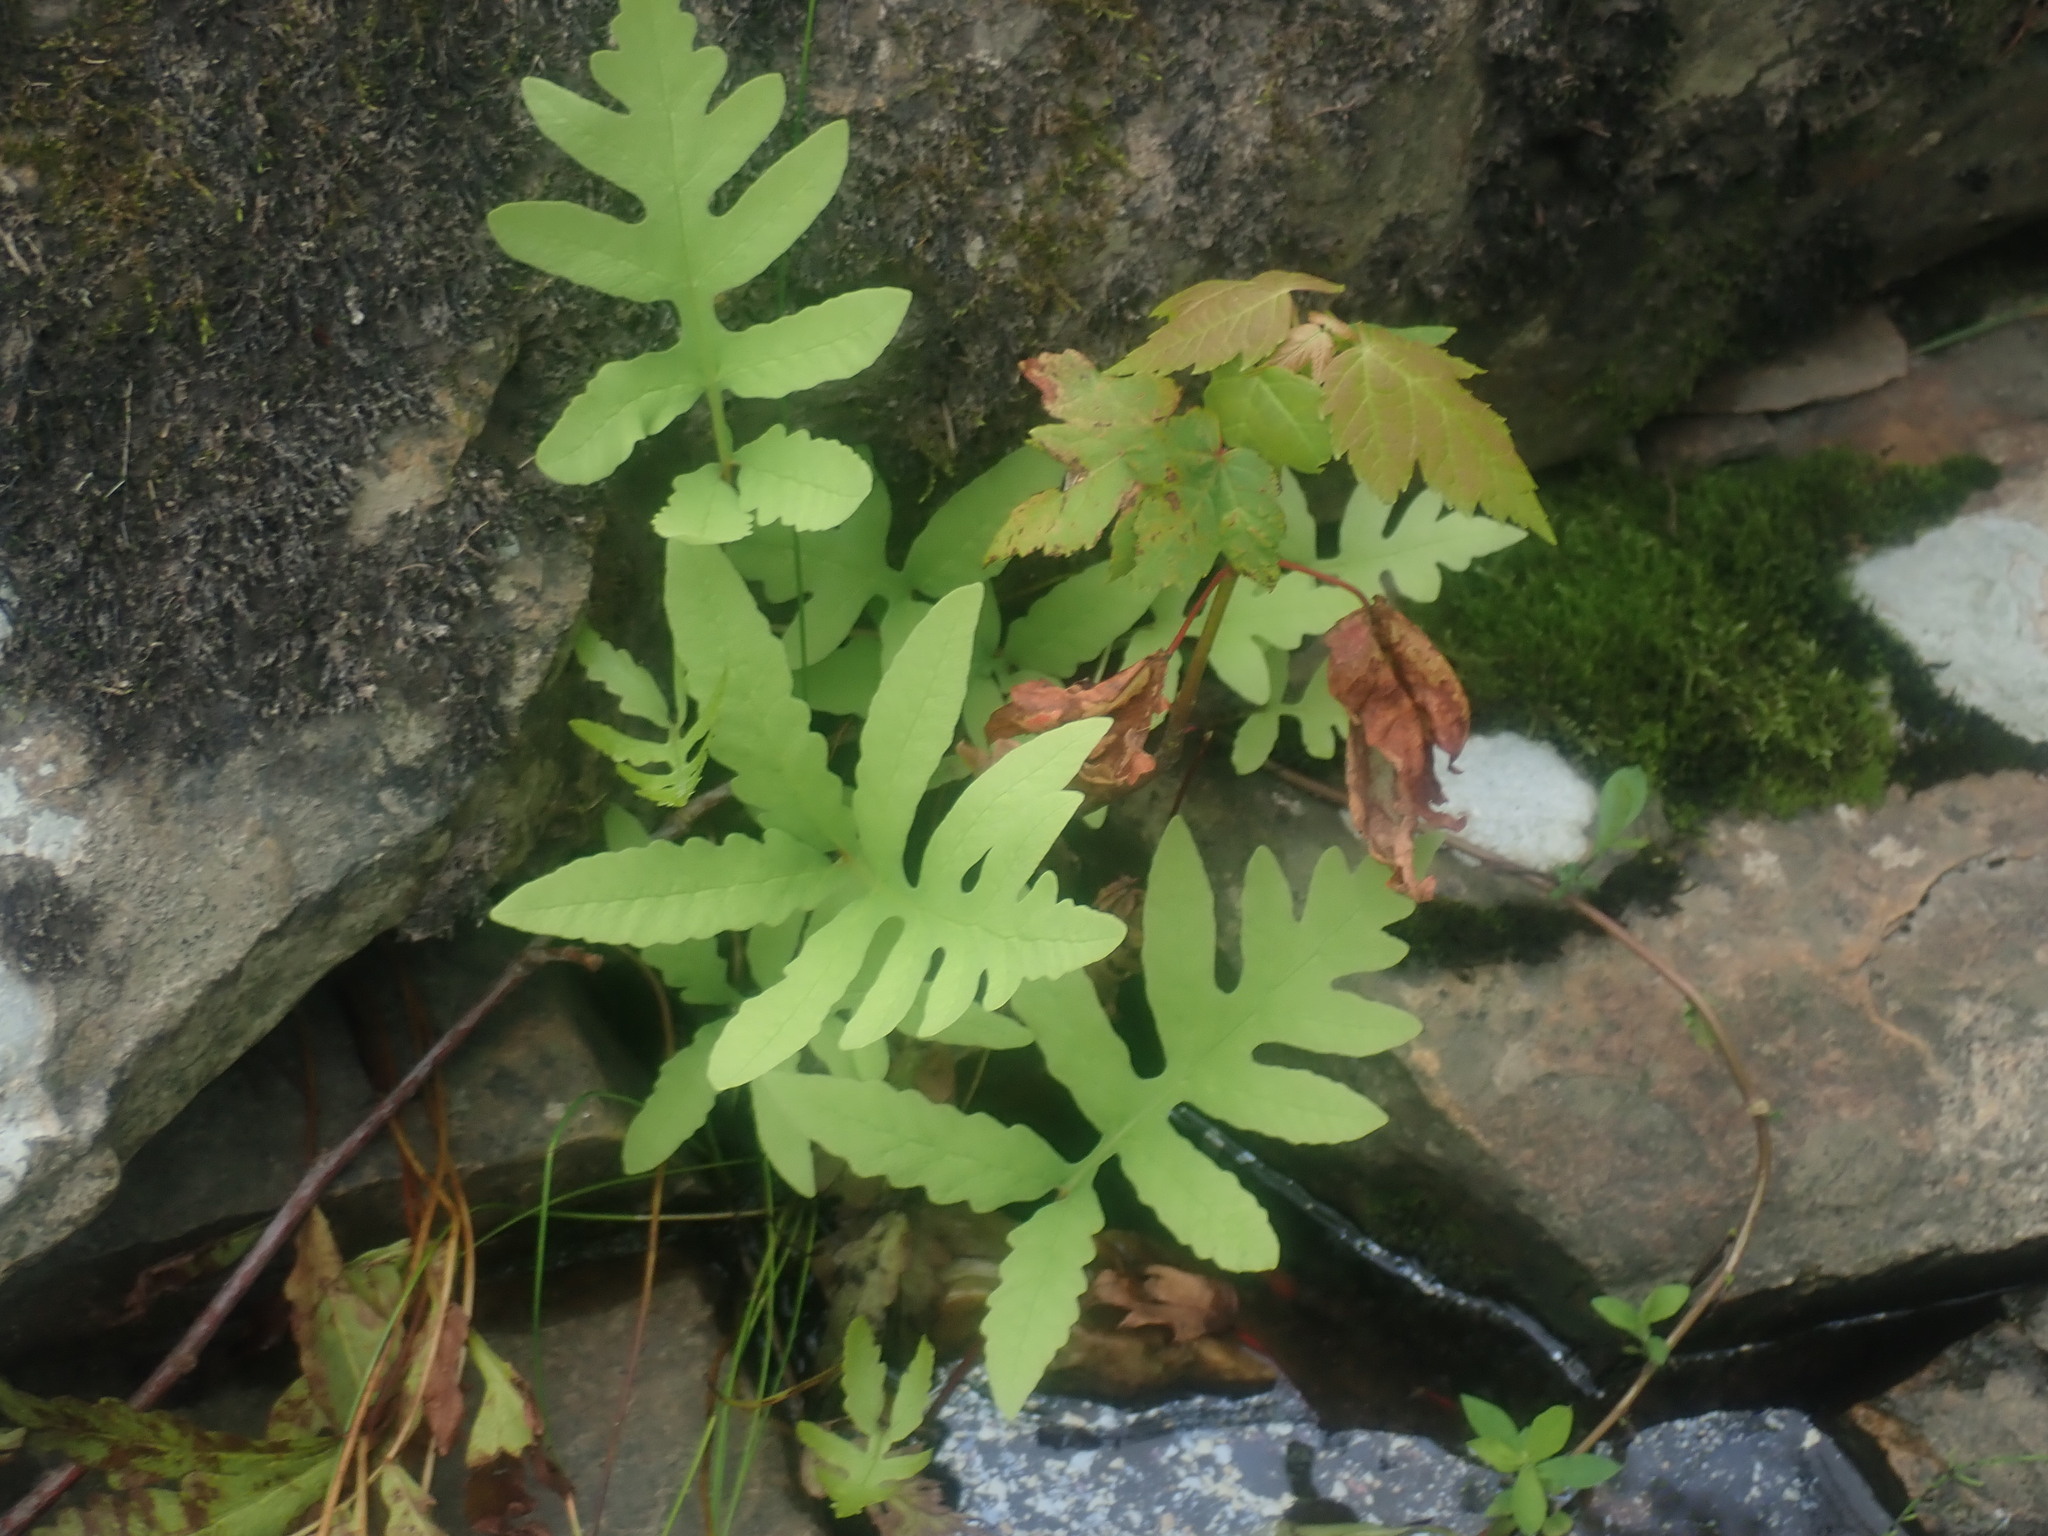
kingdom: Plantae
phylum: Tracheophyta
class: Polypodiopsida
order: Polypodiales
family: Onocleaceae
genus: Onoclea
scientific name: Onoclea sensibilis
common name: Sensitive fern
